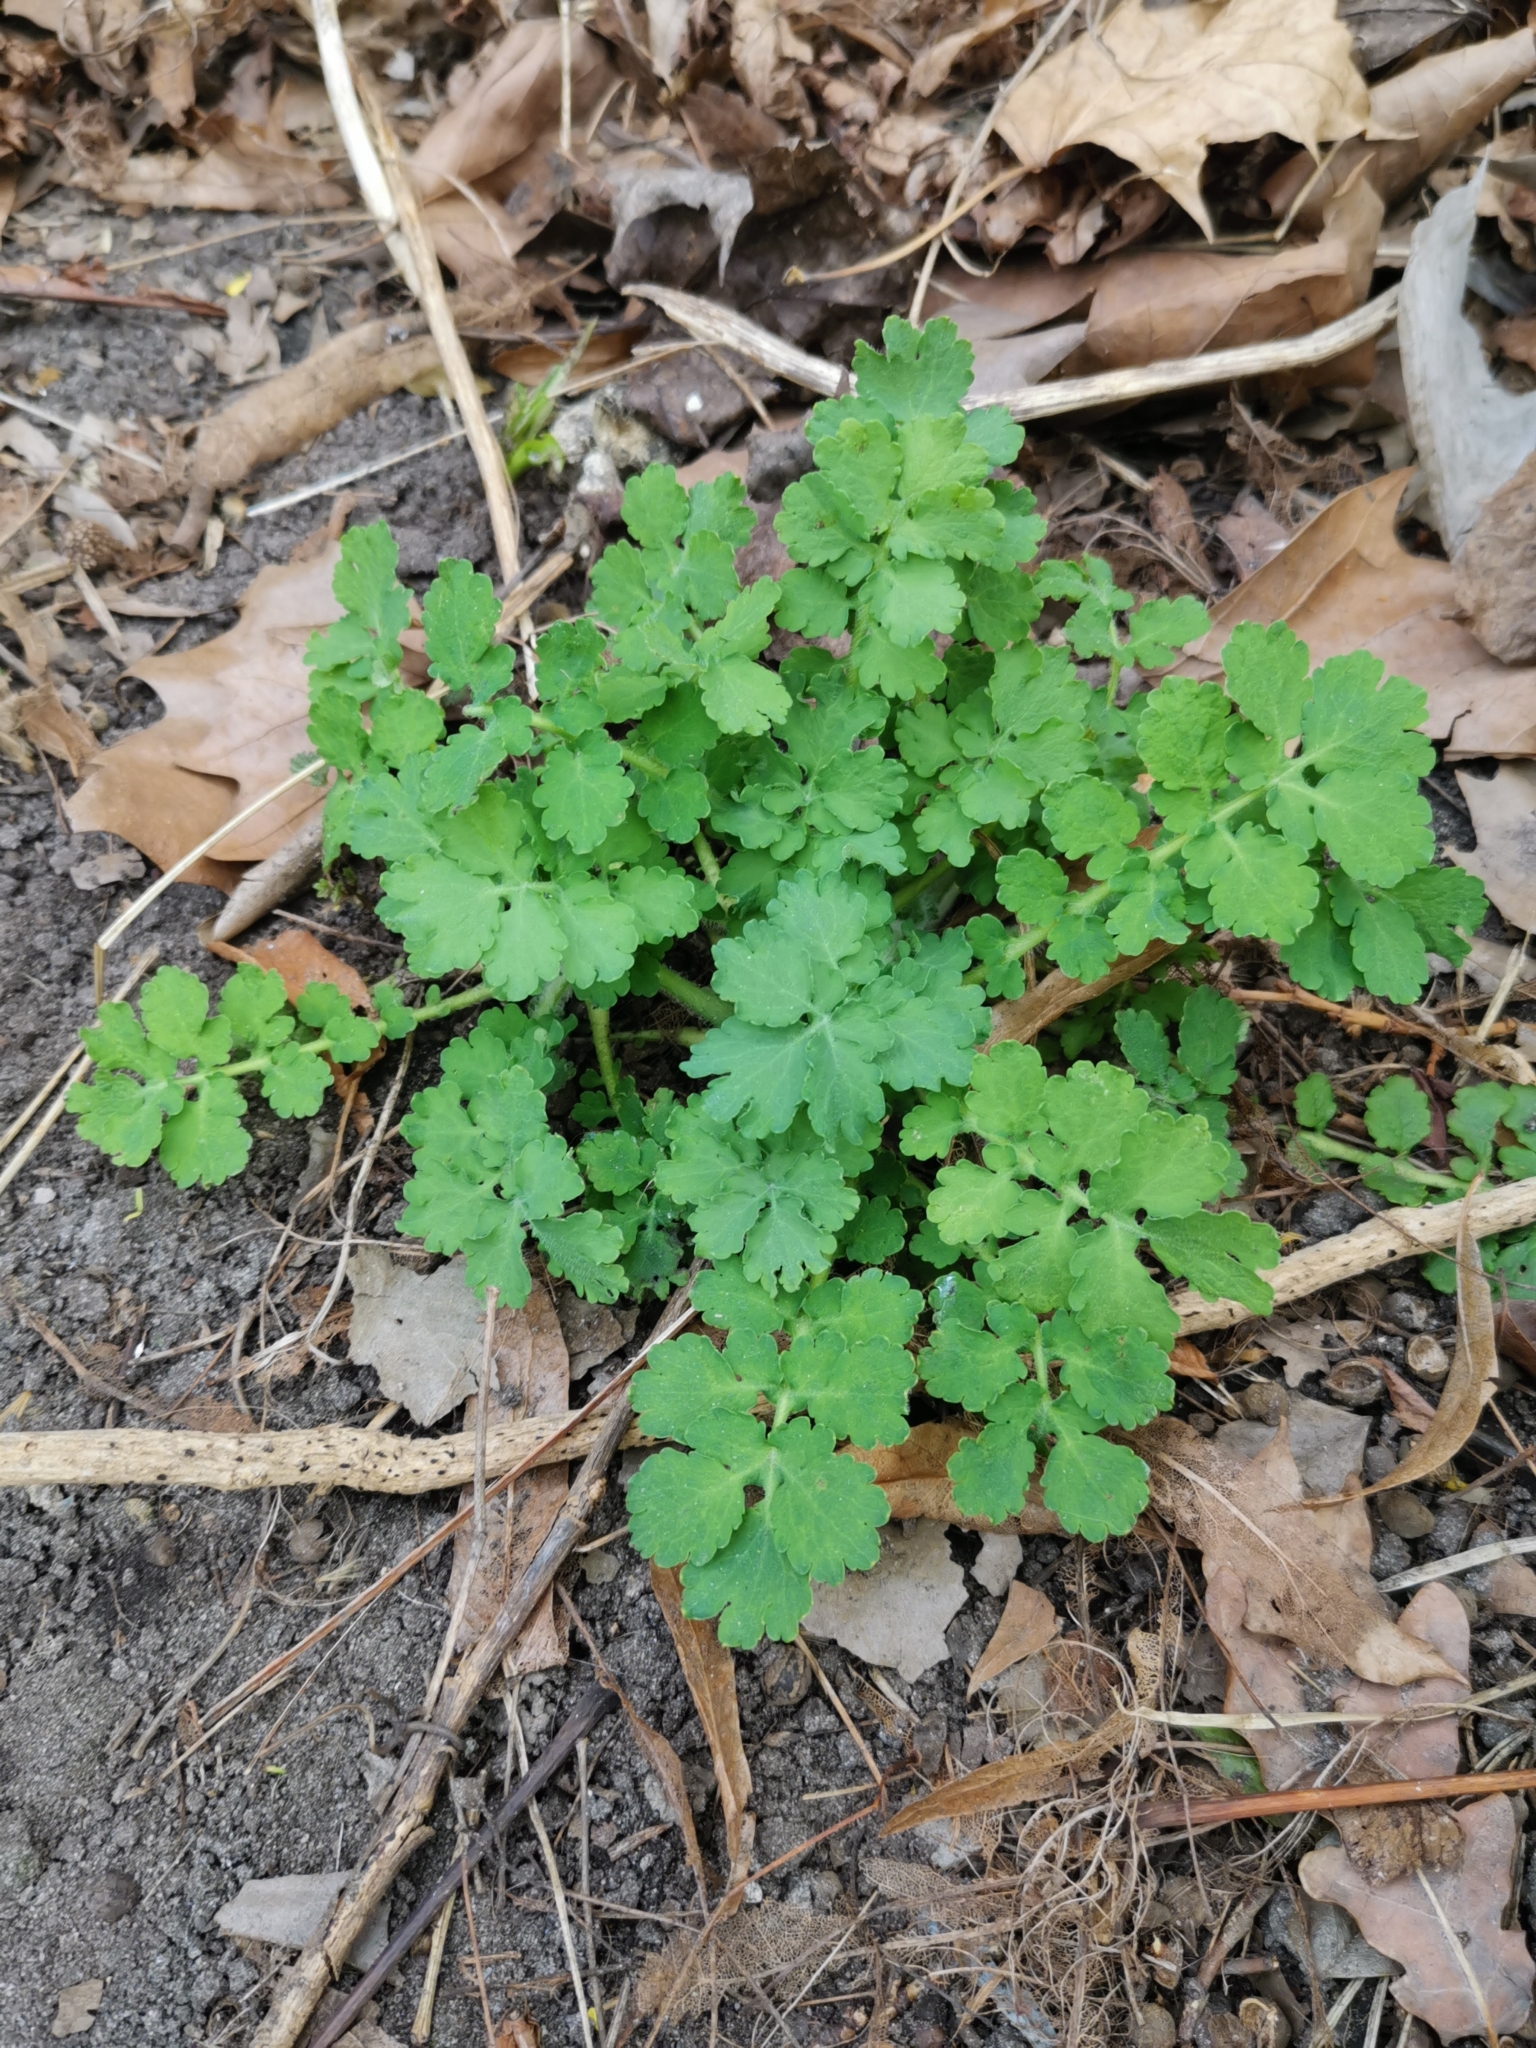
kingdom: Plantae
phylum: Tracheophyta
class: Magnoliopsida
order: Ranunculales
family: Papaveraceae
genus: Chelidonium
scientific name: Chelidonium majus
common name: Greater celandine
